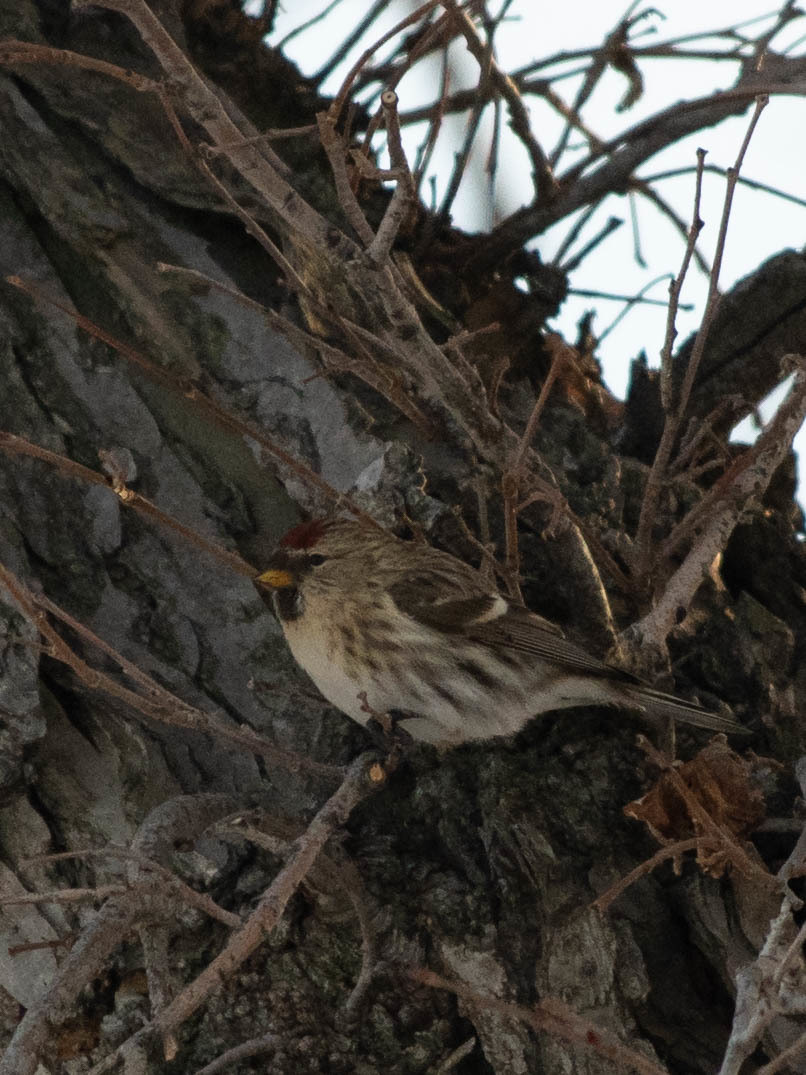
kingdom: Animalia
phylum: Chordata
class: Aves
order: Passeriformes
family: Fringillidae
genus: Acanthis
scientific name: Acanthis flammea
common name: Common redpoll
